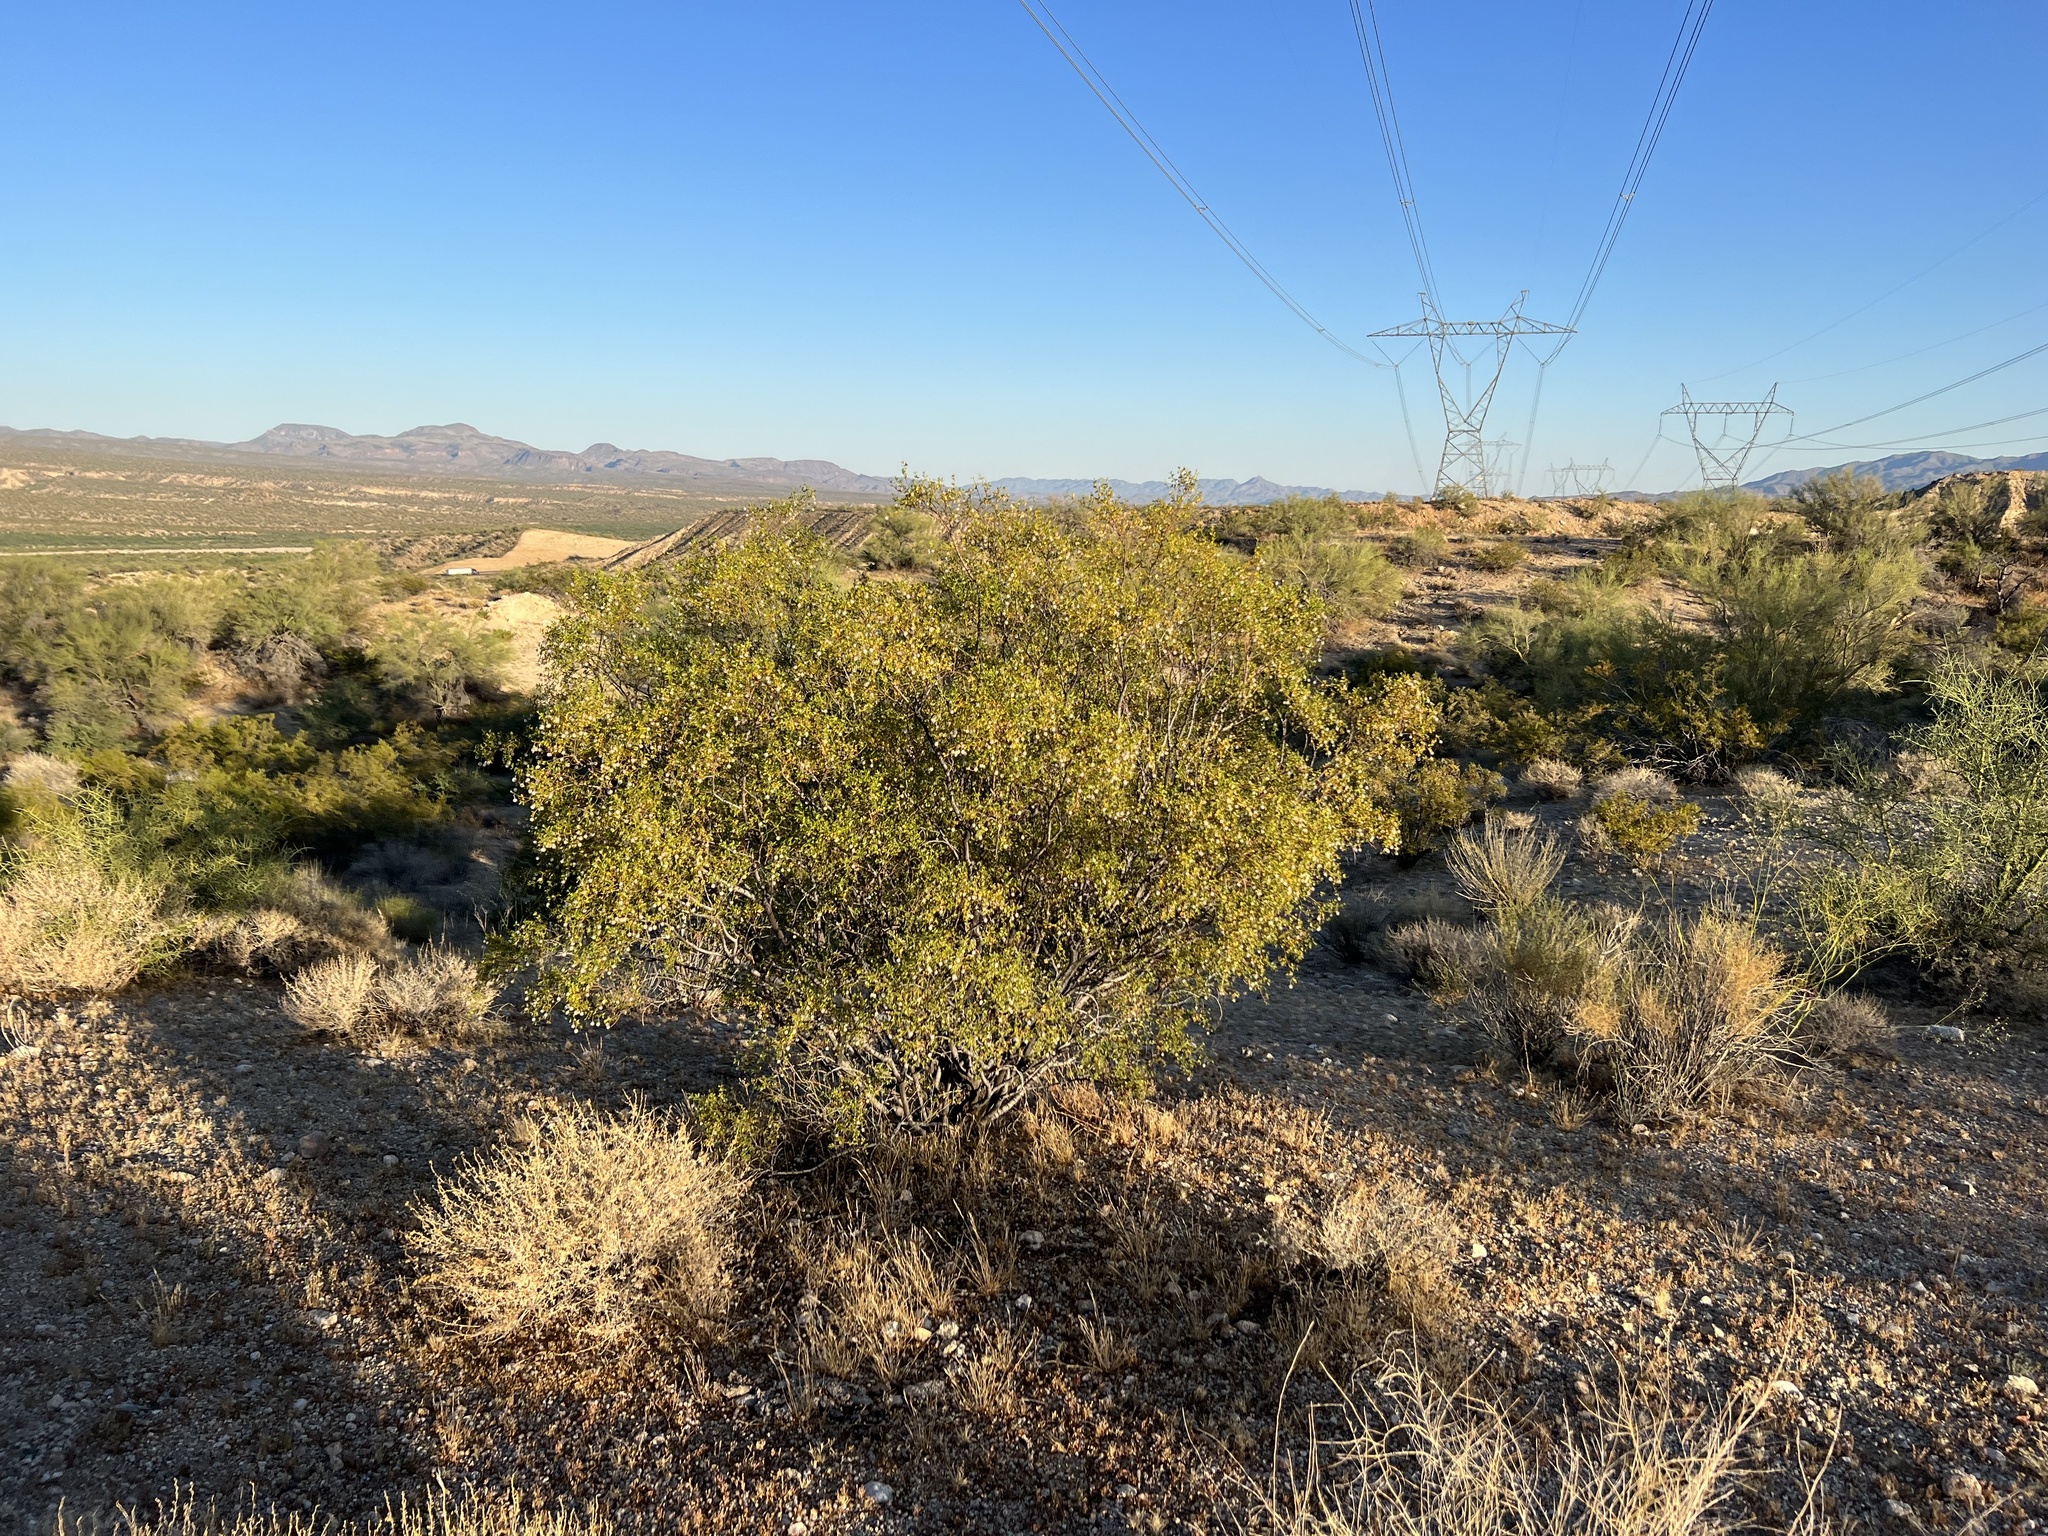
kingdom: Plantae
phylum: Tracheophyta
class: Magnoliopsida
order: Zygophyllales
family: Zygophyllaceae
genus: Larrea
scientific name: Larrea tridentata
